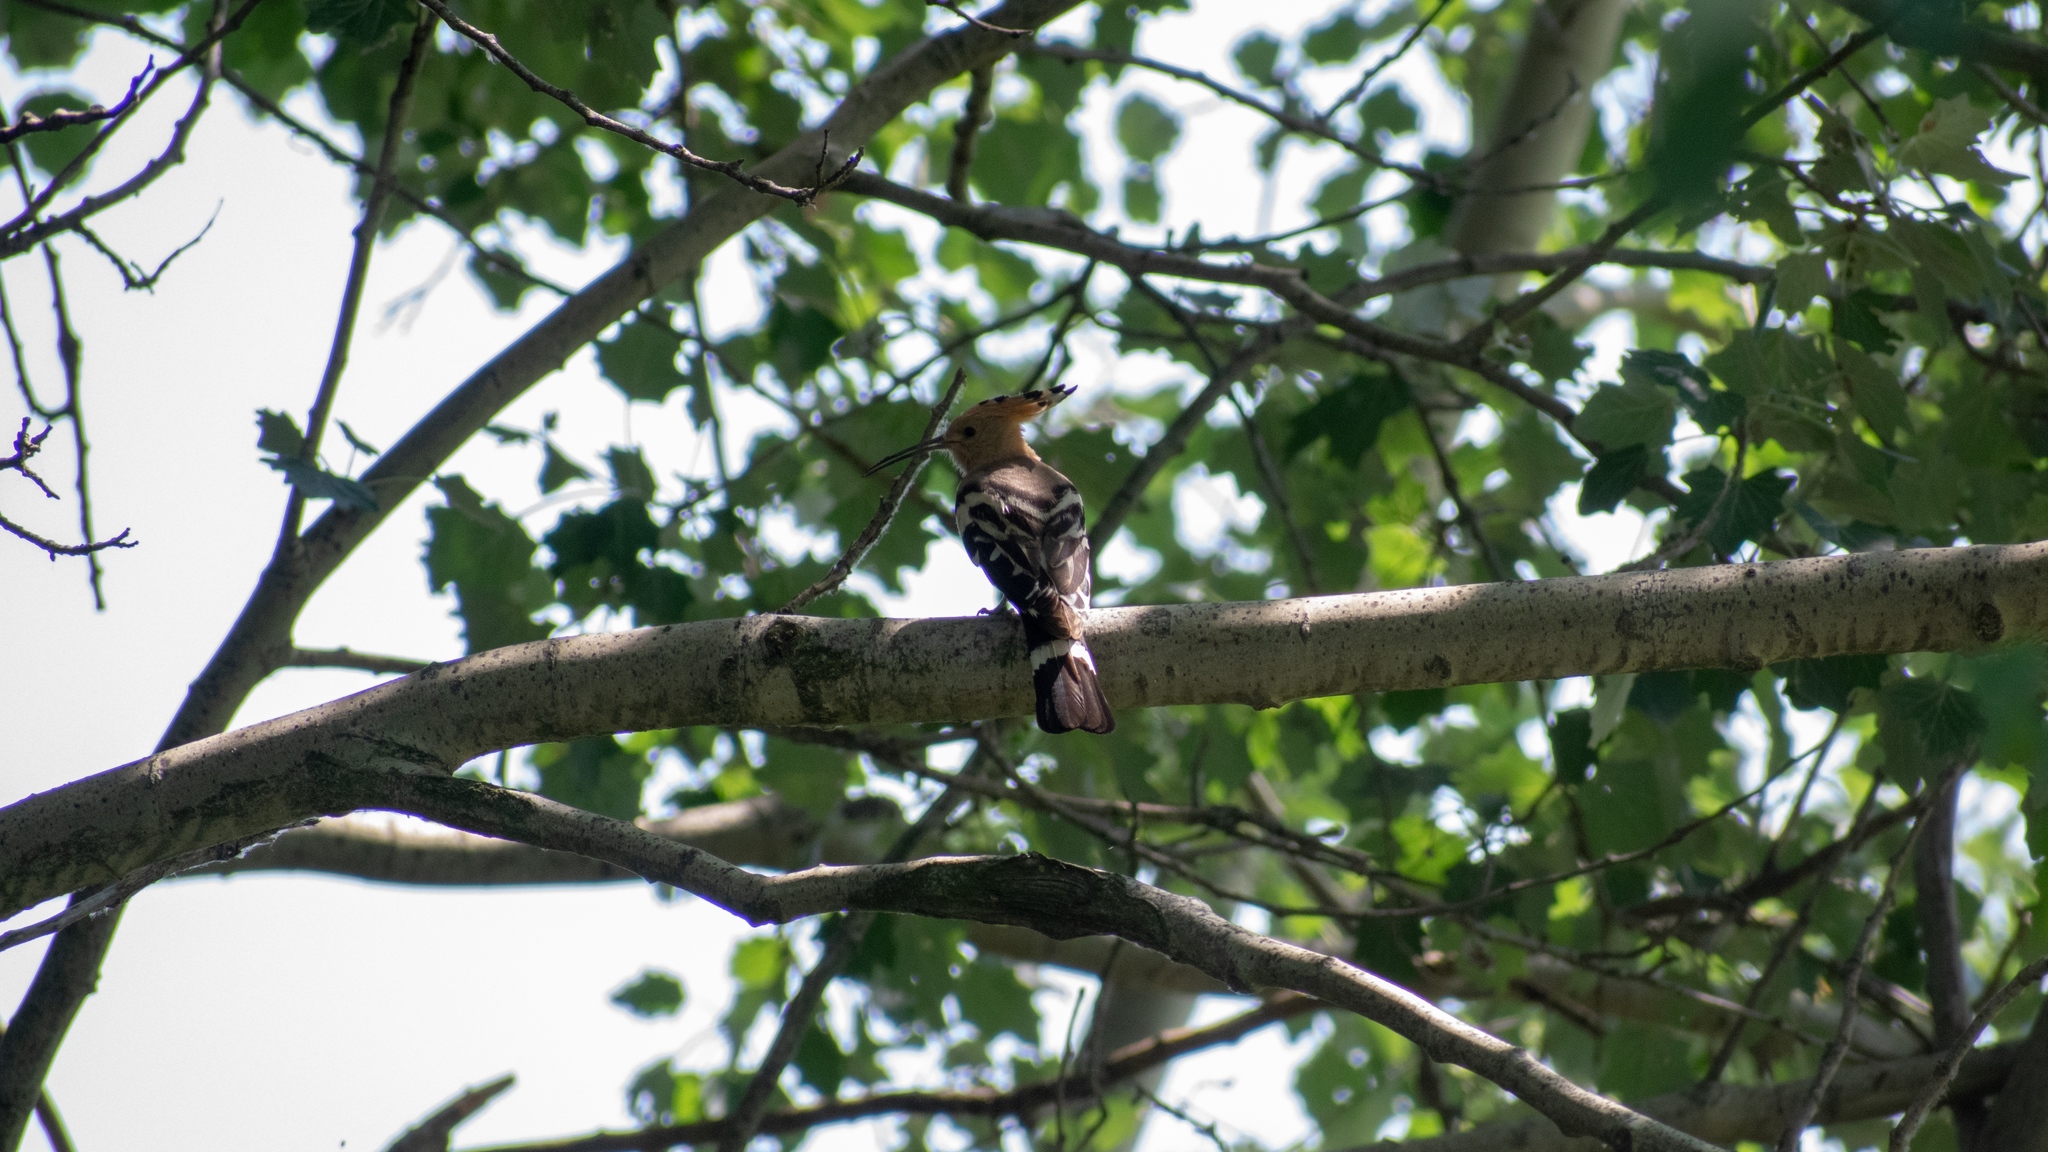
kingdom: Animalia
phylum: Chordata
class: Aves
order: Bucerotiformes
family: Upupidae
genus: Upupa
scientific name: Upupa epops
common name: Eurasian hoopoe
